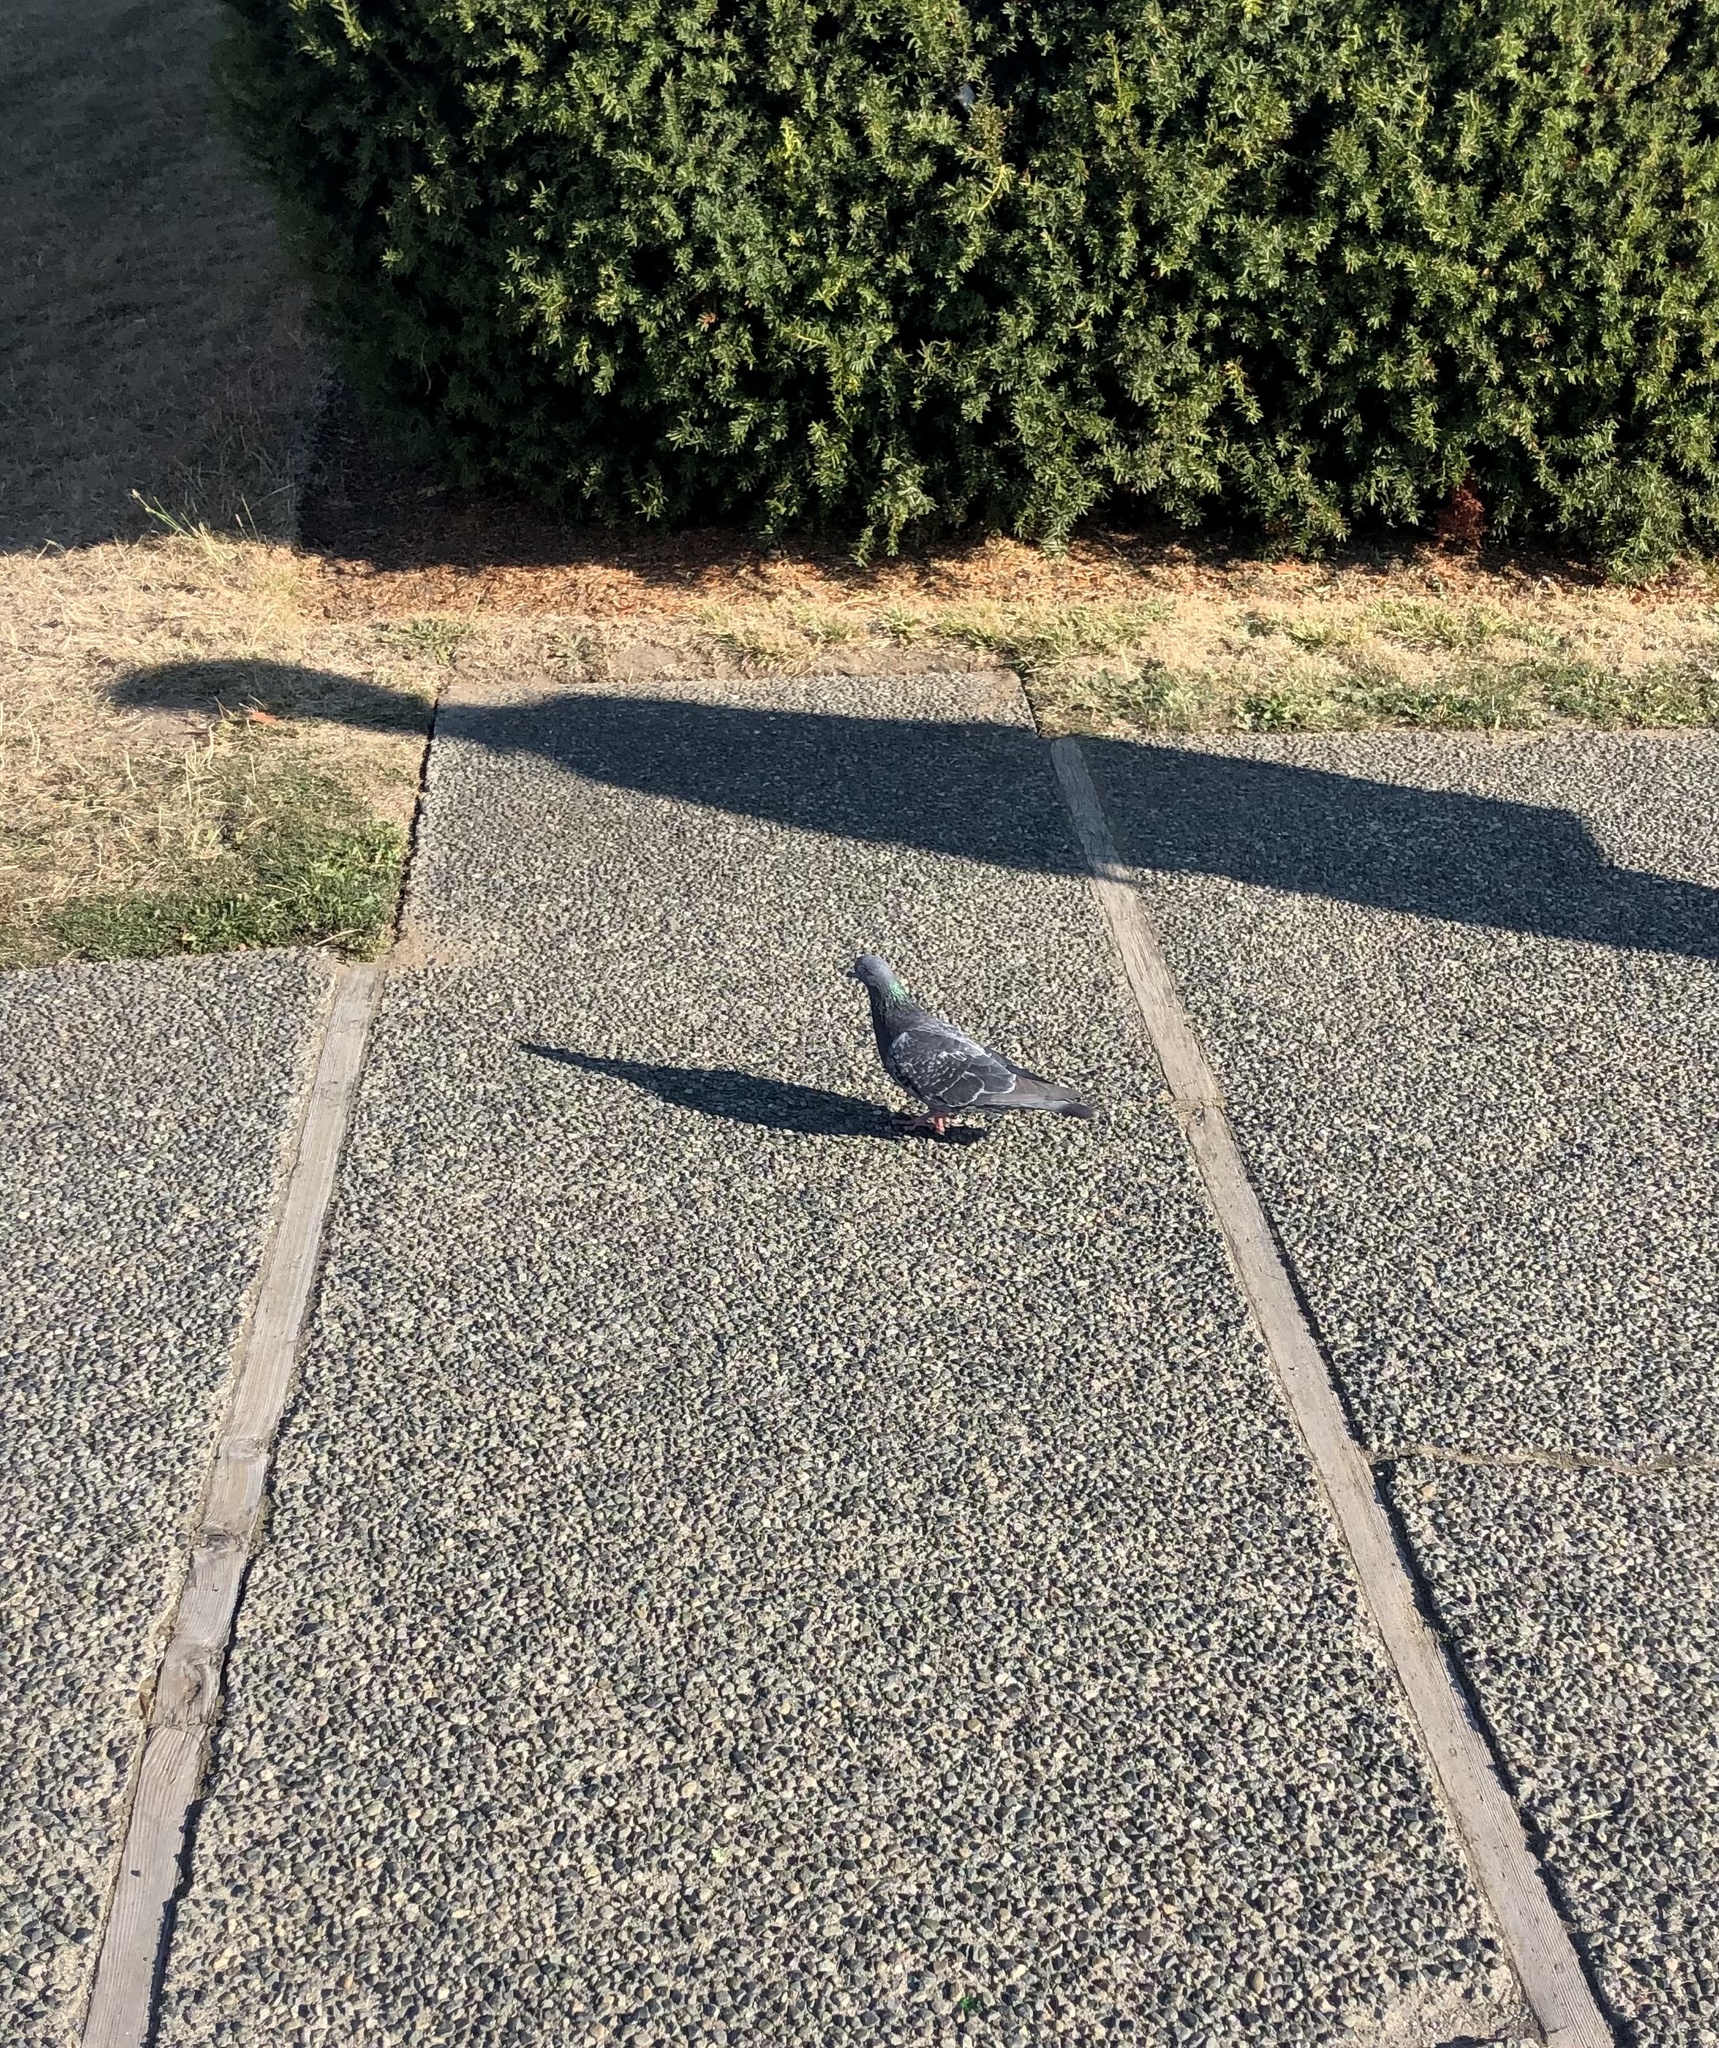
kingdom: Animalia
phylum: Chordata
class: Aves
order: Columbiformes
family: Columbidae
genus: Columba
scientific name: Columba livia
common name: Rock pigeon
